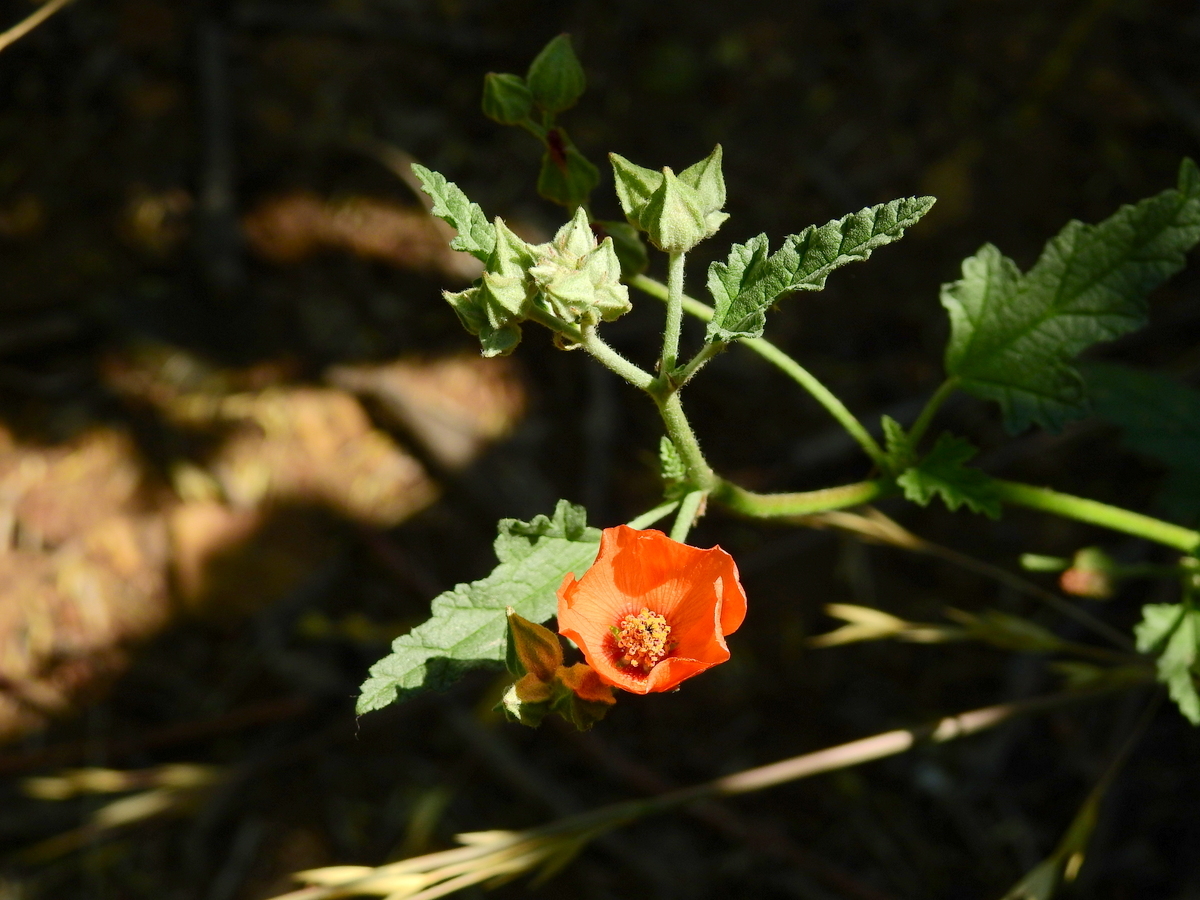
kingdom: Plantae
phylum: Tracheophyta
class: Magnoliopsida
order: Malvales
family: Malvaceae
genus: Sphaeralcea
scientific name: Sphaeralcea miniata
